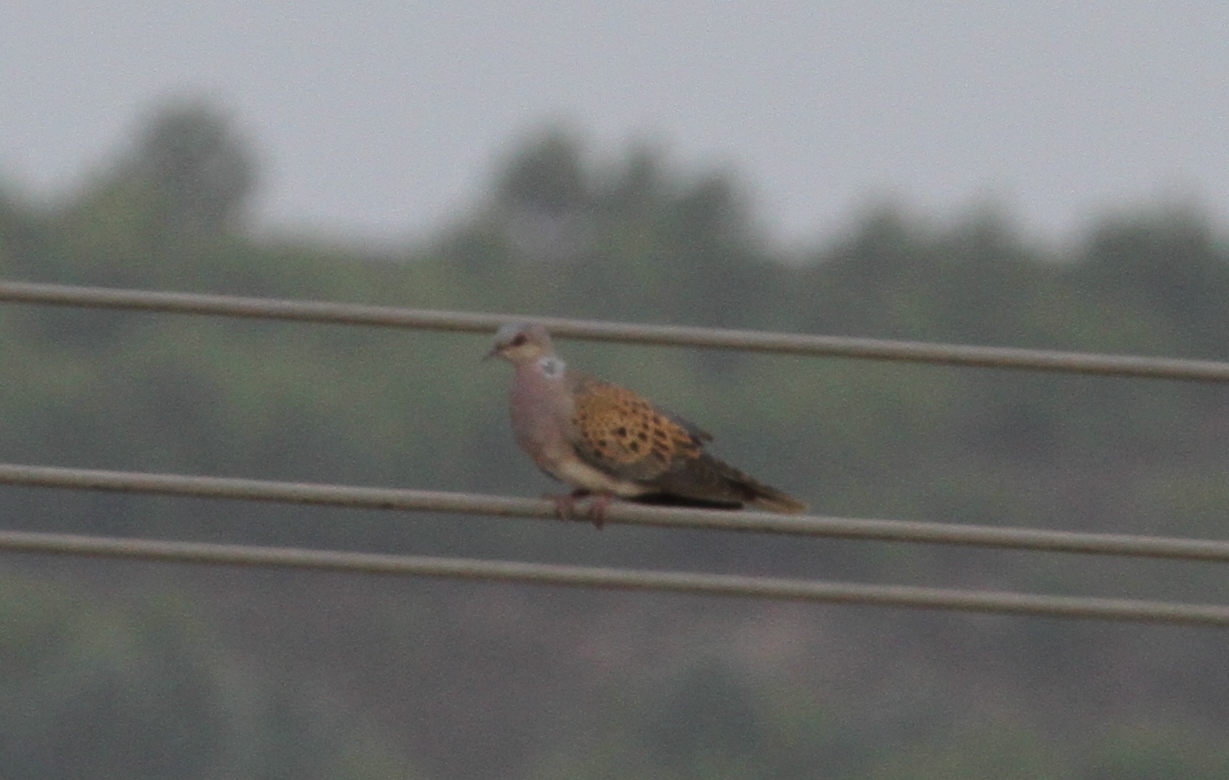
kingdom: Animalia
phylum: Chordata
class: Aves
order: Columbiformes
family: Columbidae
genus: Streptopelia
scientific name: Streptopelia turtur
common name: European turtle dove
